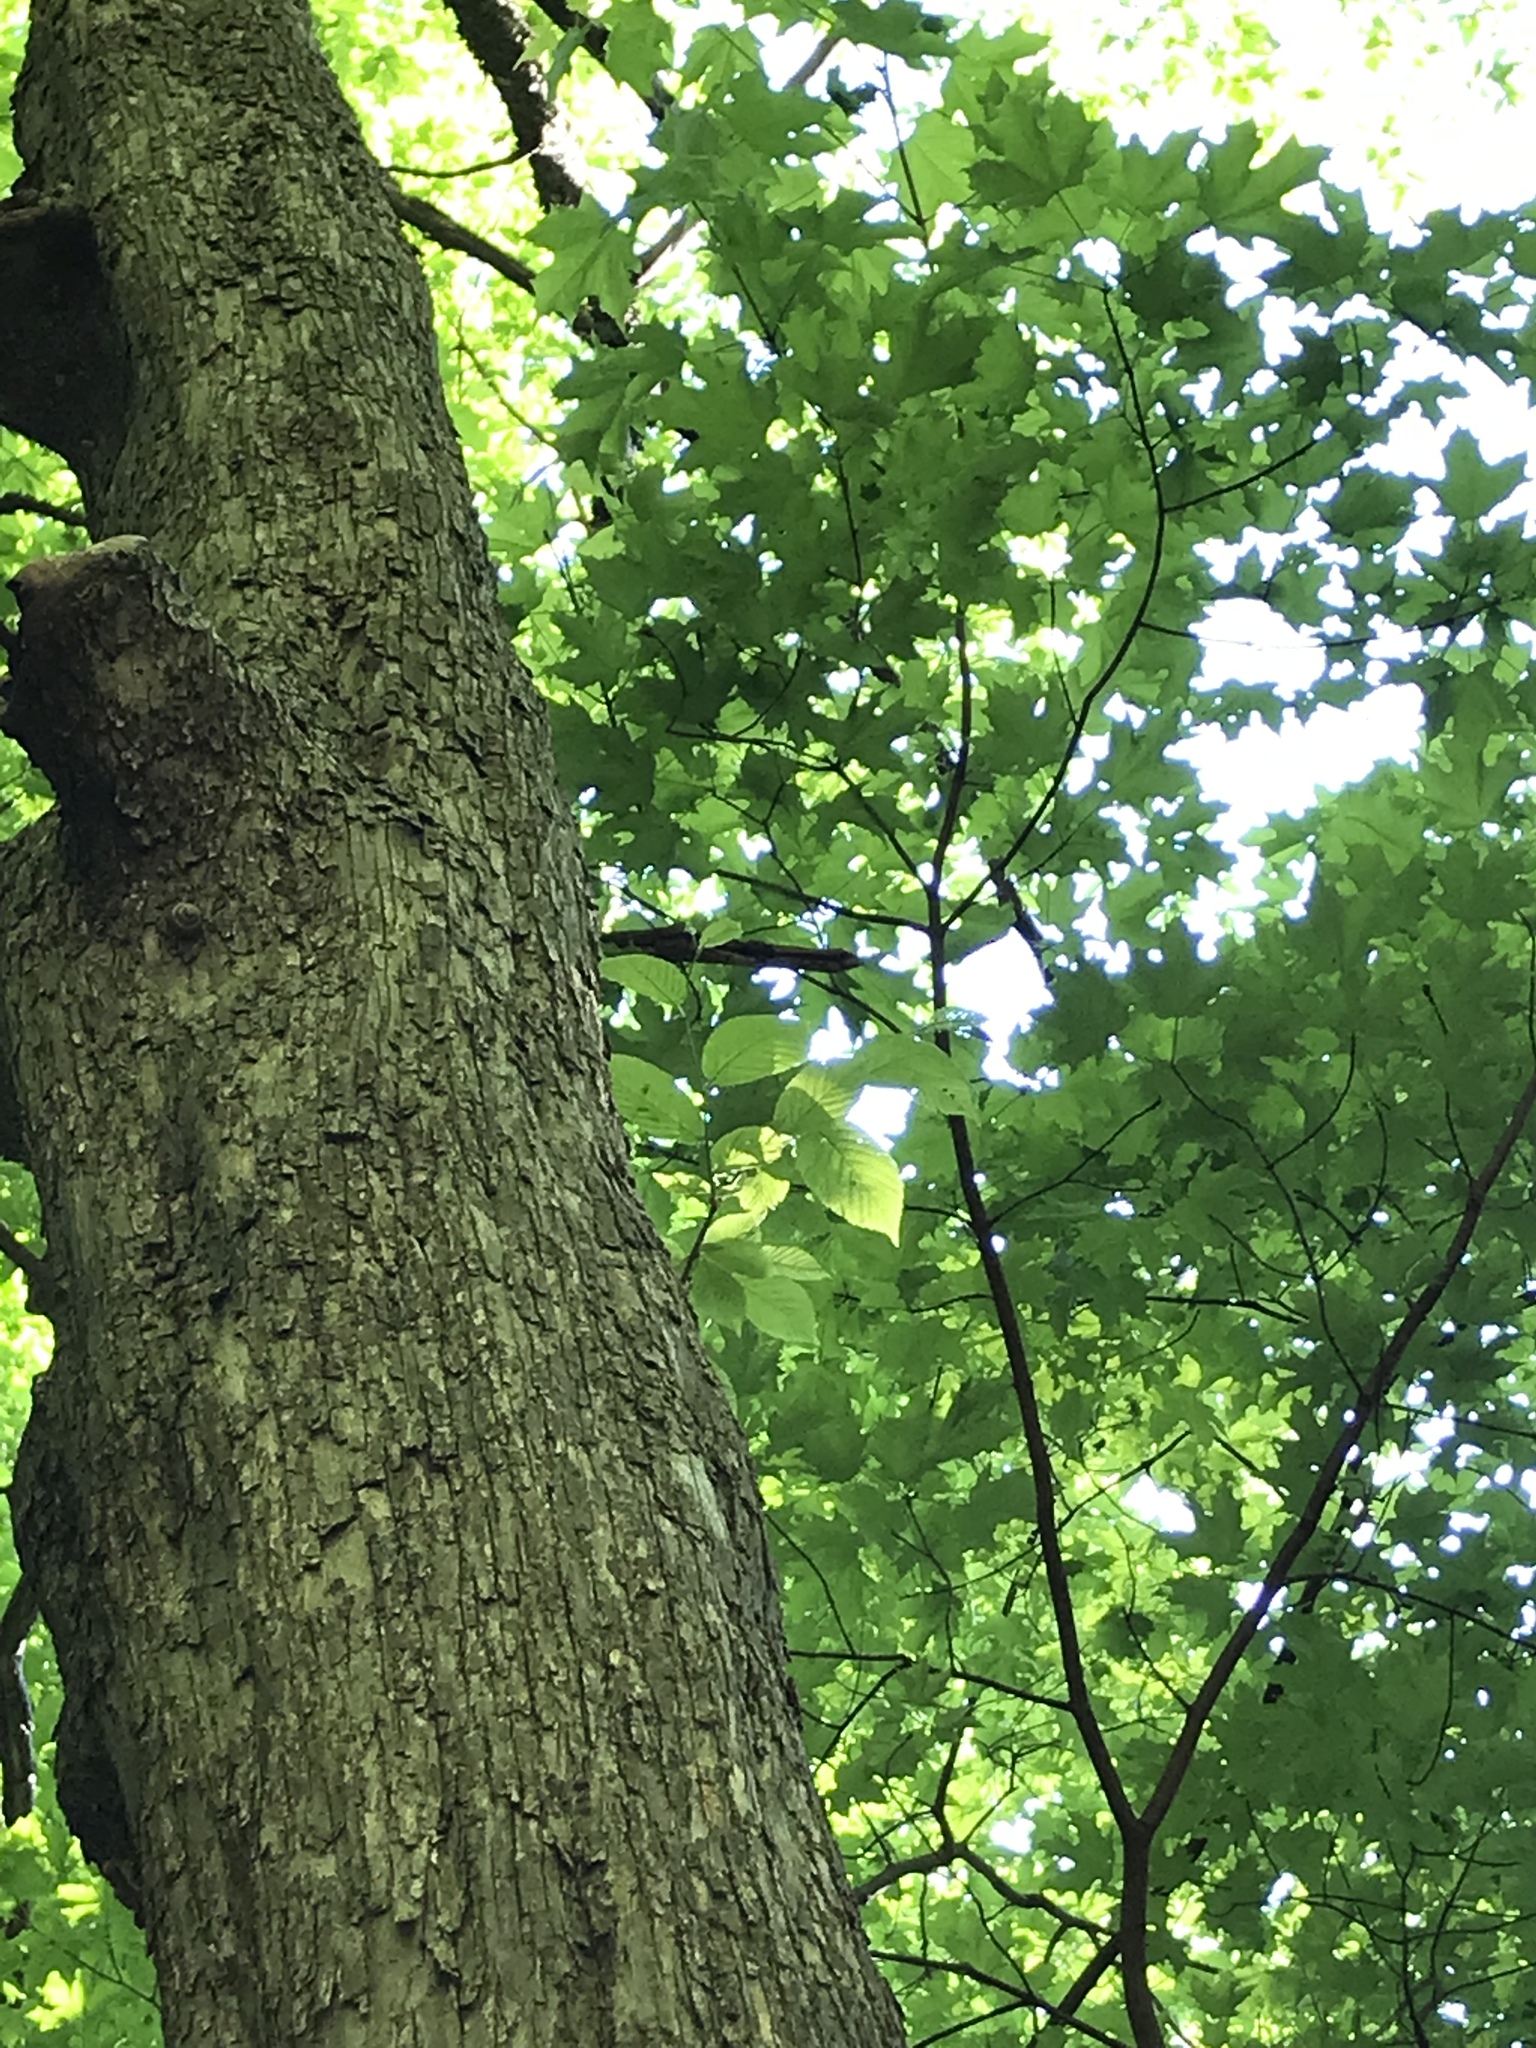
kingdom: Plantae
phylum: Tracheophyta
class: Magnoliopsida
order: Fagales
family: Betulaceae
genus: Ostrya
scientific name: Ostrya virginiana
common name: Ironwood
